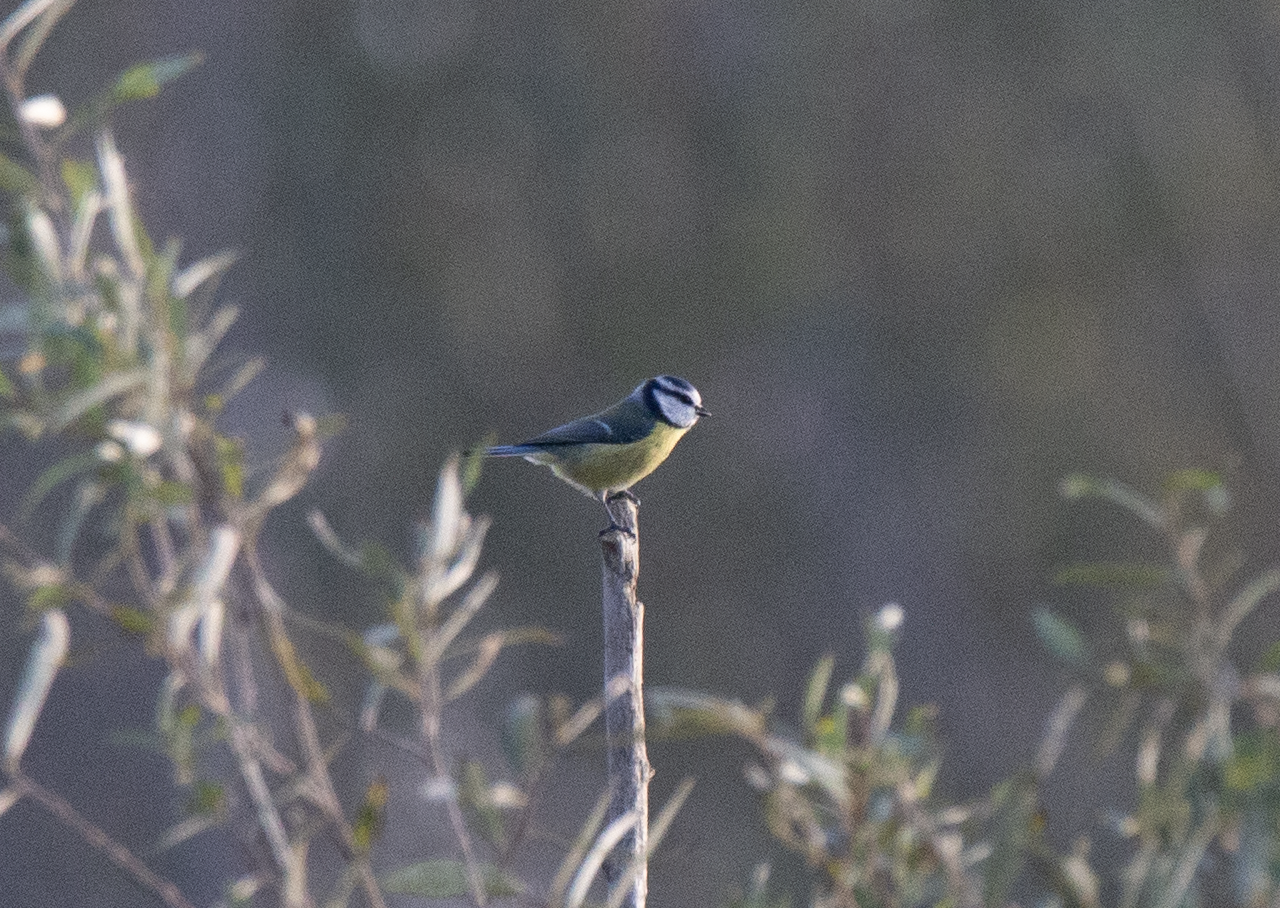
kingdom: Animalia
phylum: Chordata
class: Aves
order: Passeriformes
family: Paridae
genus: Cyanistes
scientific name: Cyanistes caeruleus
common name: Eurasian blue tit
